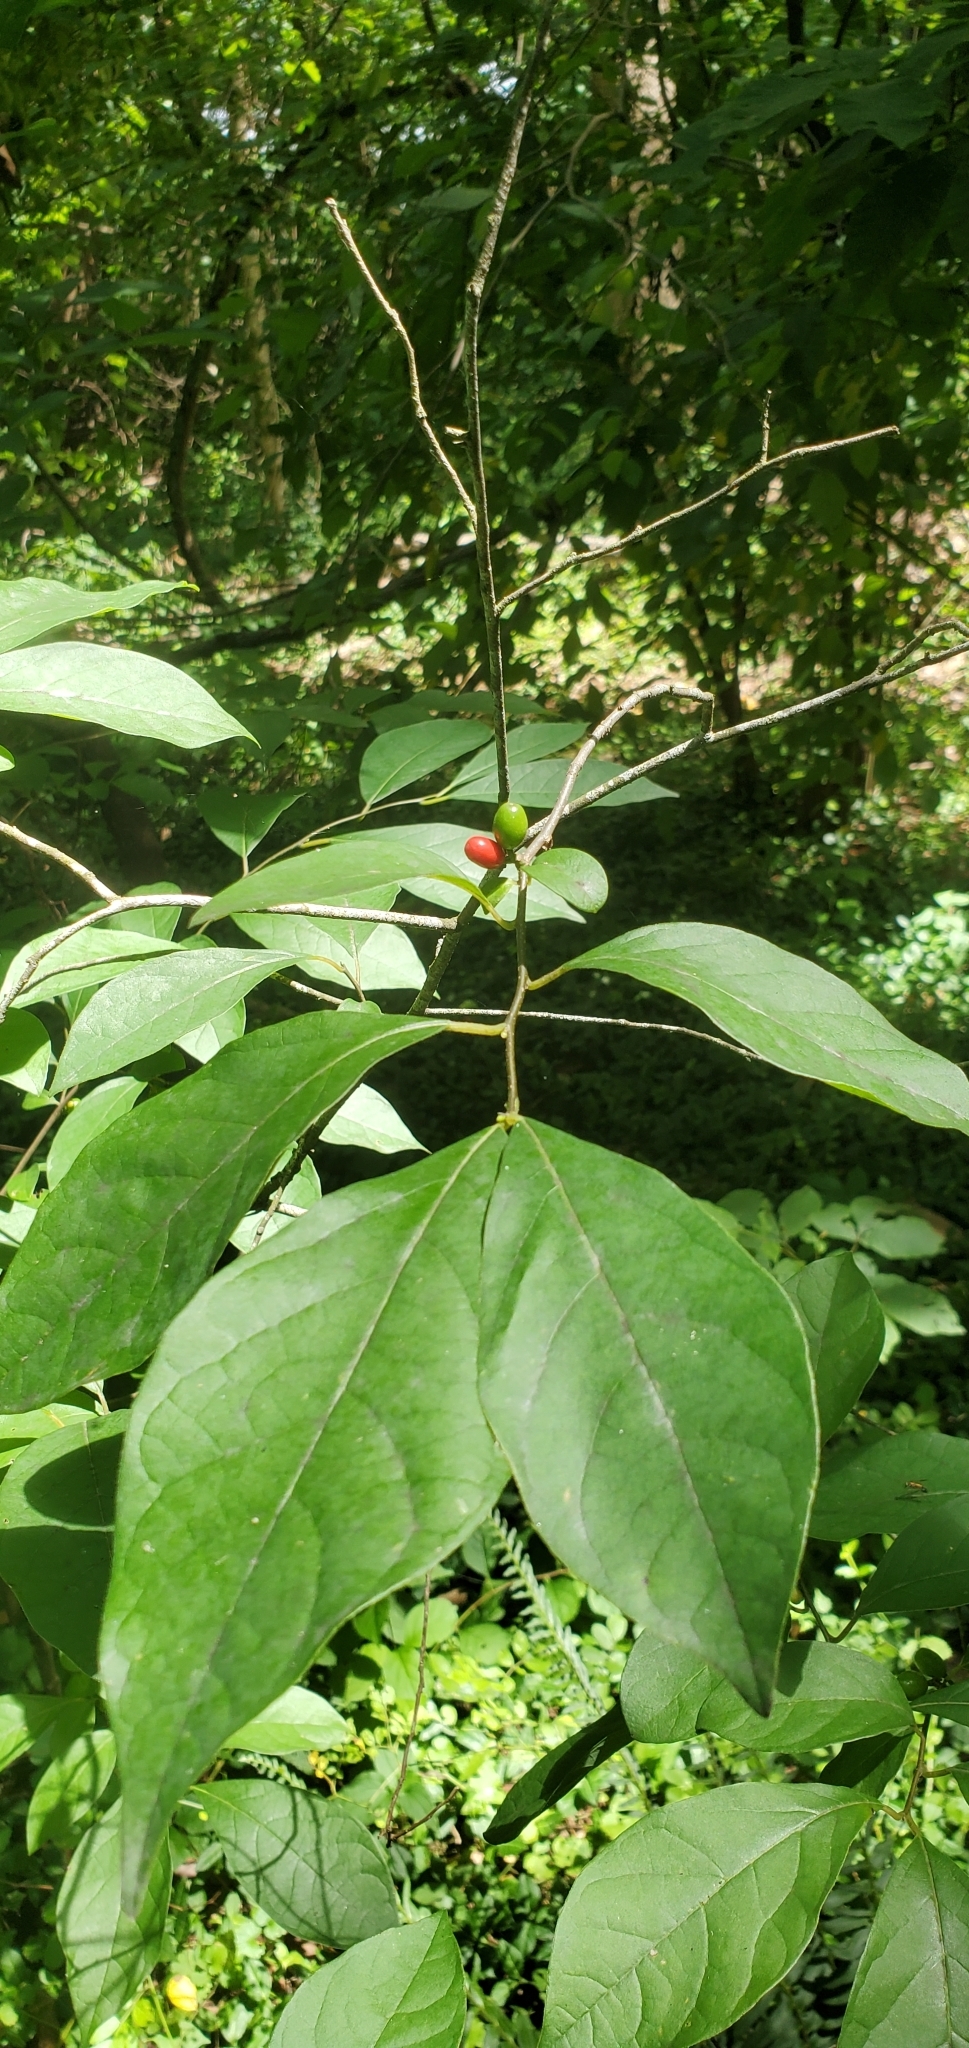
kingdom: Plantae
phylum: Tracheophyta
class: Magnoliopsida
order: Laurales
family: Lauraceae
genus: Lindera
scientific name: Lindera benzoin
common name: Spicebush
